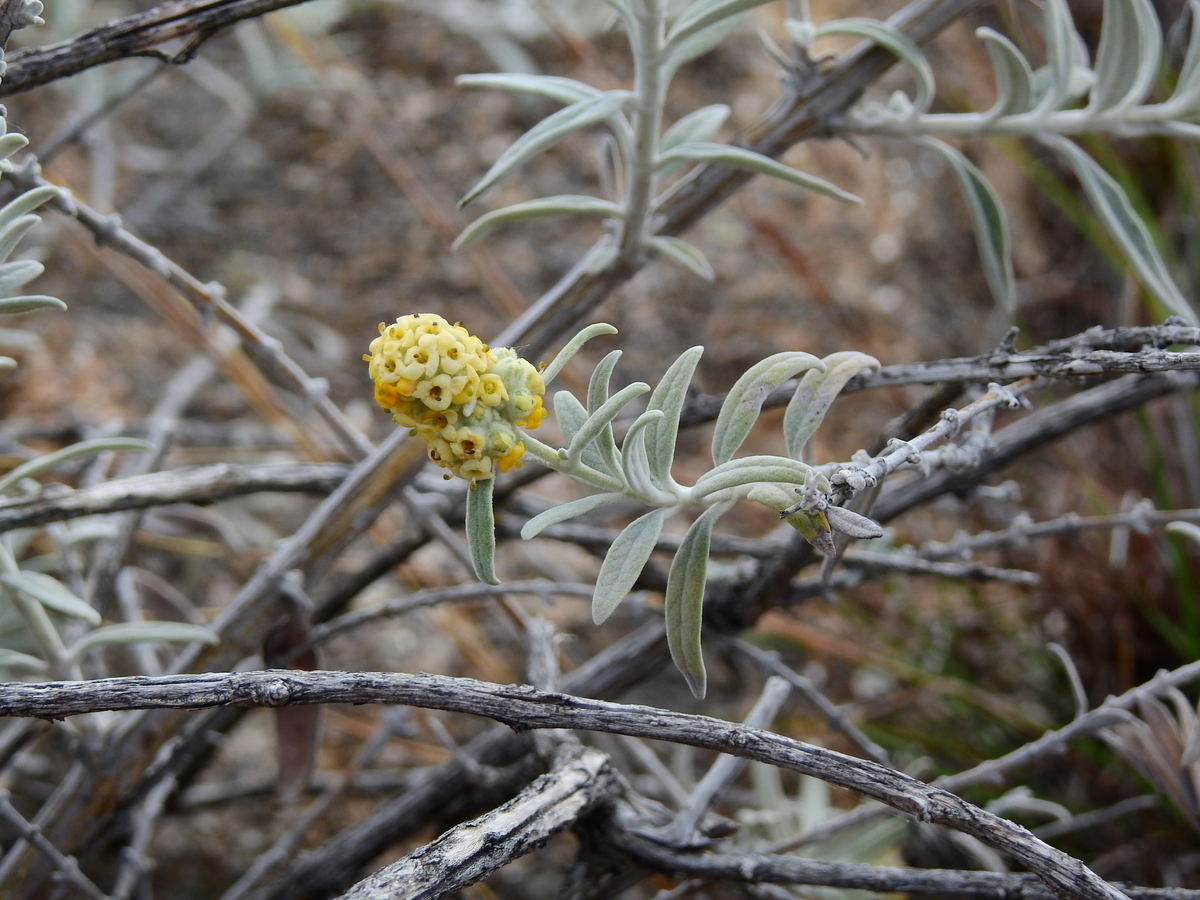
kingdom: Plantae
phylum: Tracheophyta
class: Magnoliopsida
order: Lamiales
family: Scrophulariaceae
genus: Buddleja
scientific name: Buddleja cordobensis
